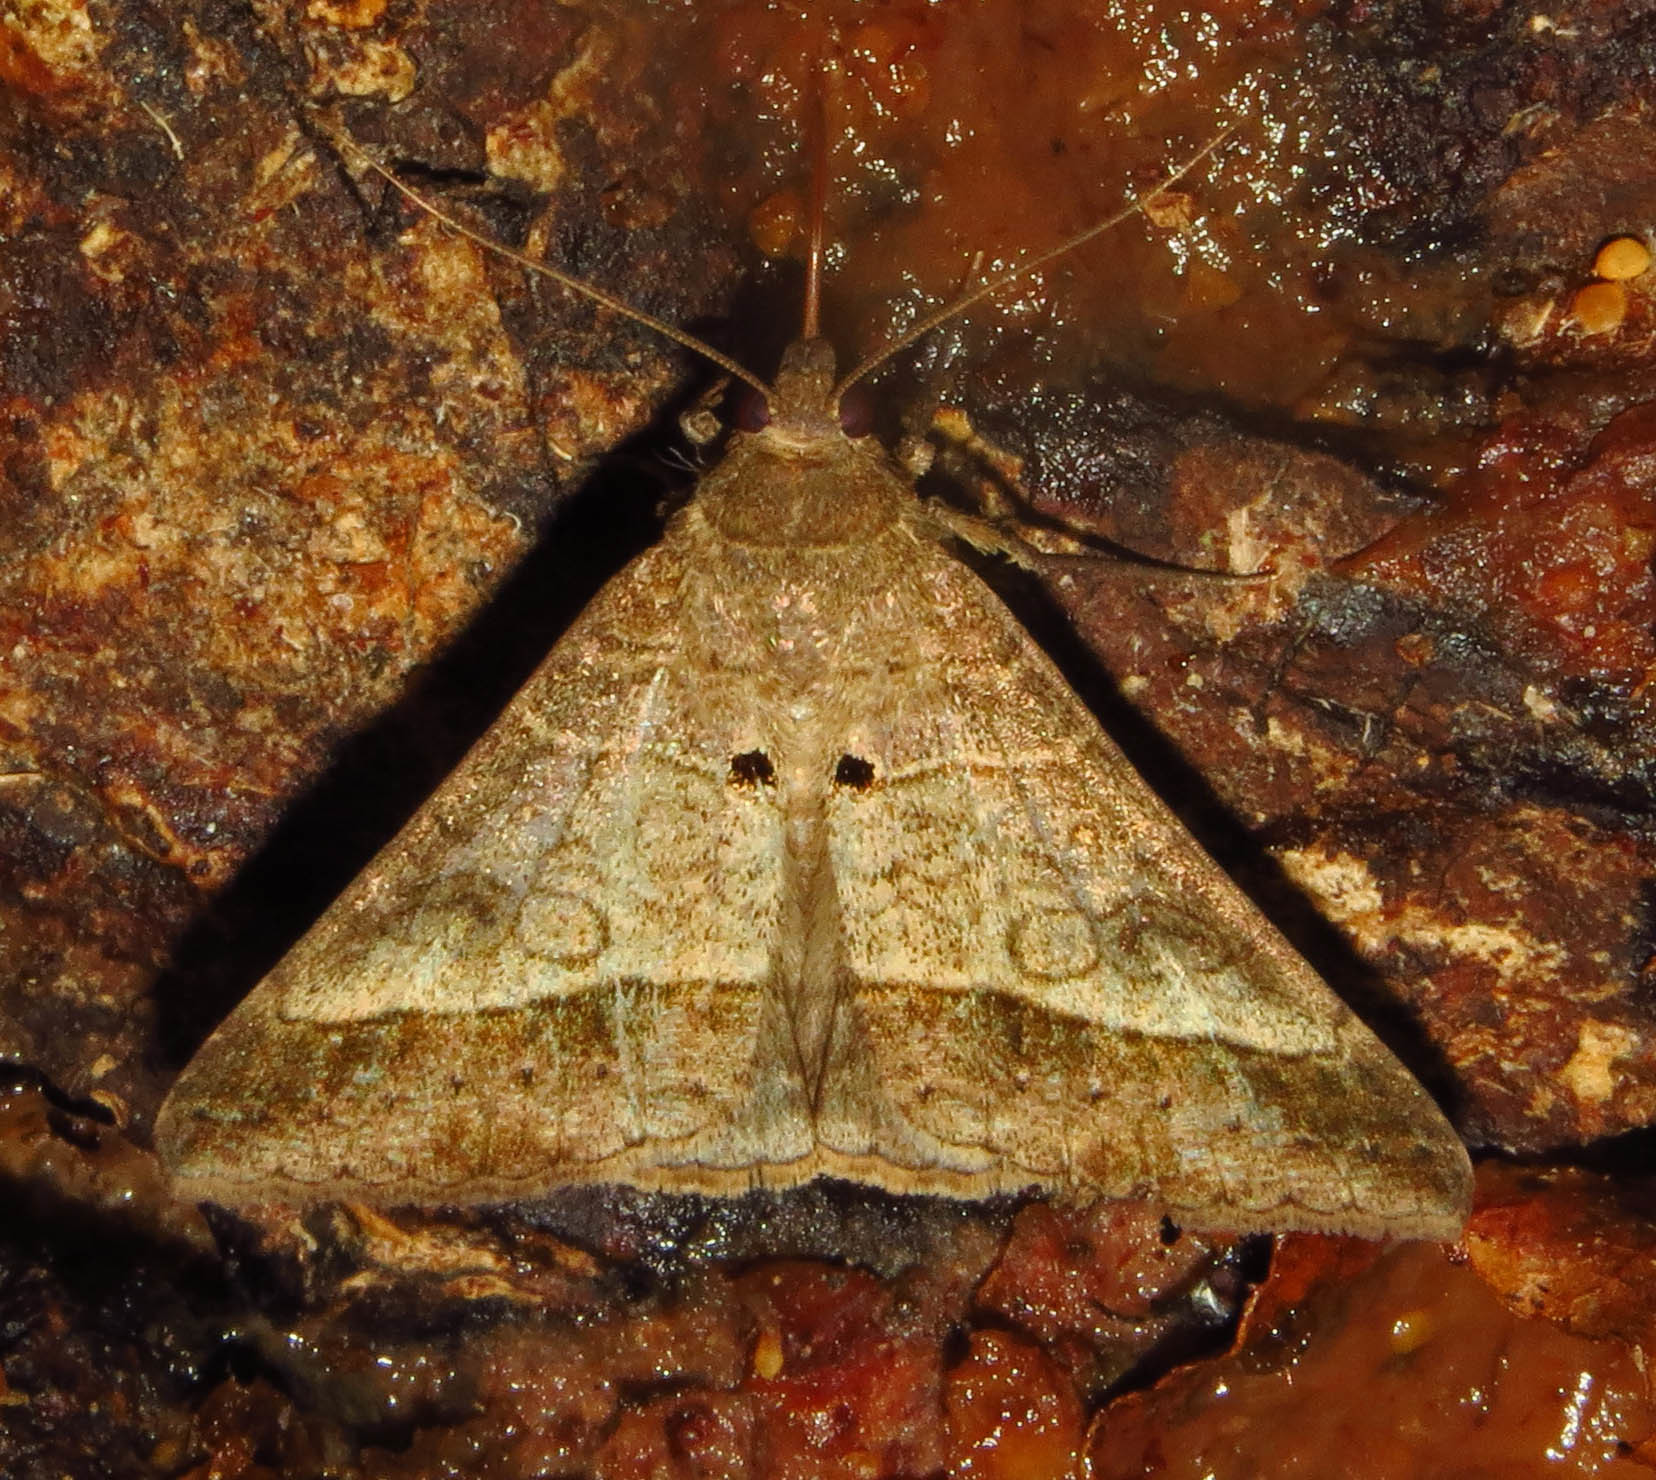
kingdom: Animalia
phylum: Arthropoda
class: Insecta
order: Lepidoptera
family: Erebidae
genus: Mocis
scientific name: Mocis latipes
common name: Striped grass looper
